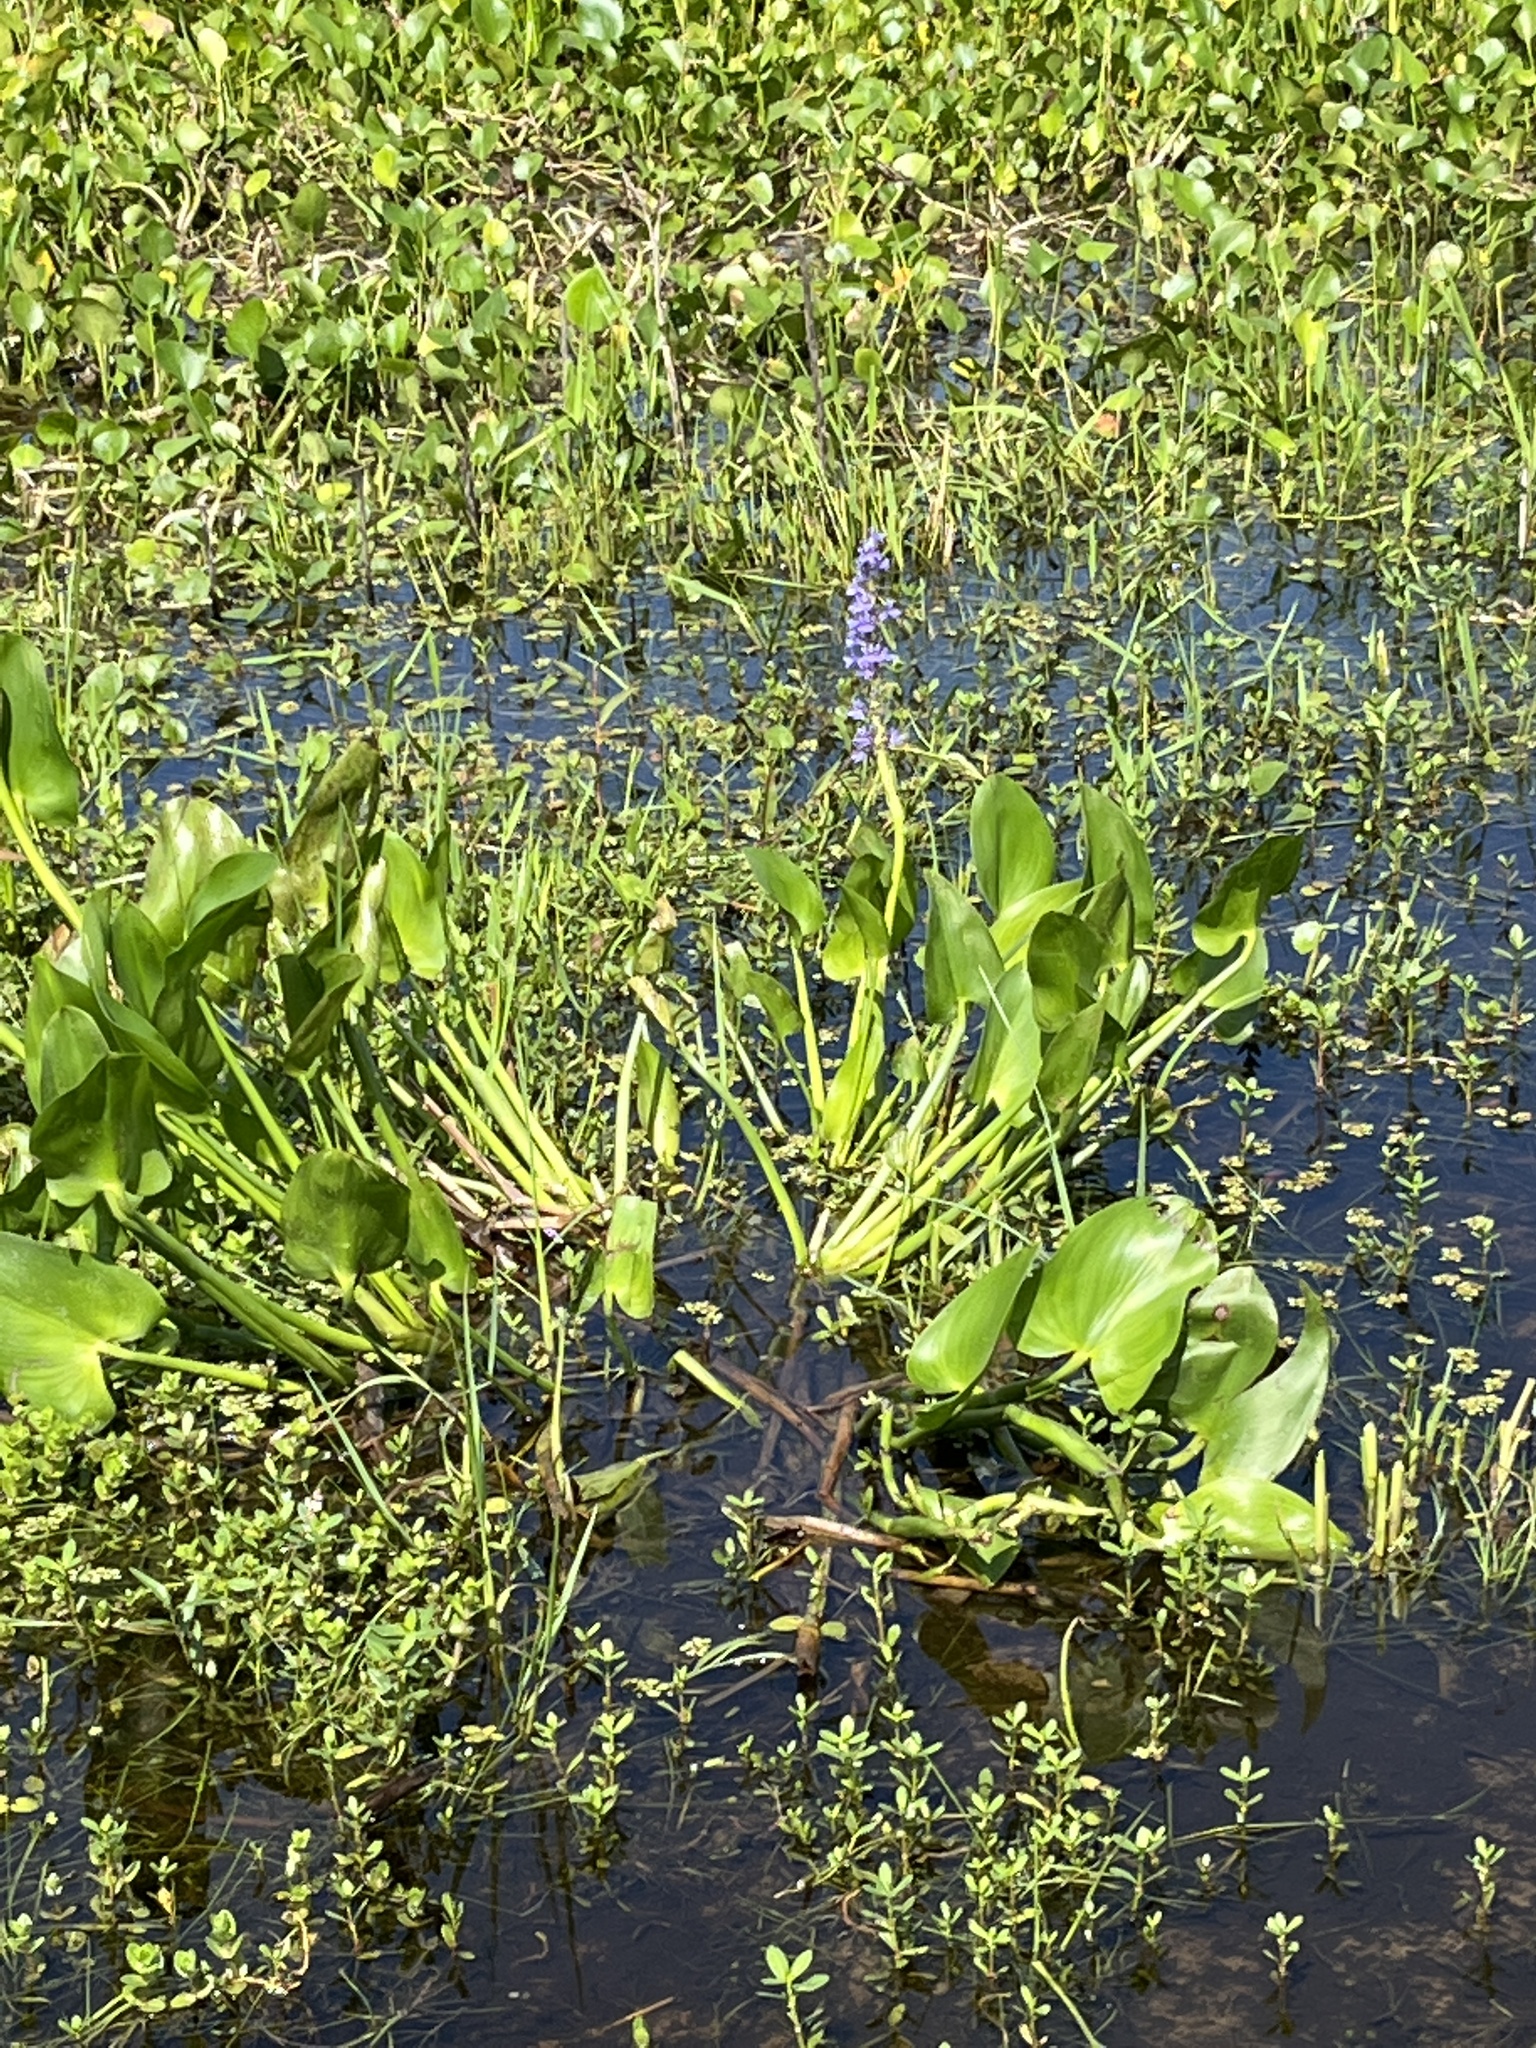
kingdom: Plantae
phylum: Tracheophyta
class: Liliopsida
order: Commelinales
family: Pontederiaceae
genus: Pontederia
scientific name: Pontederia cordata
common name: Pickerelweed
